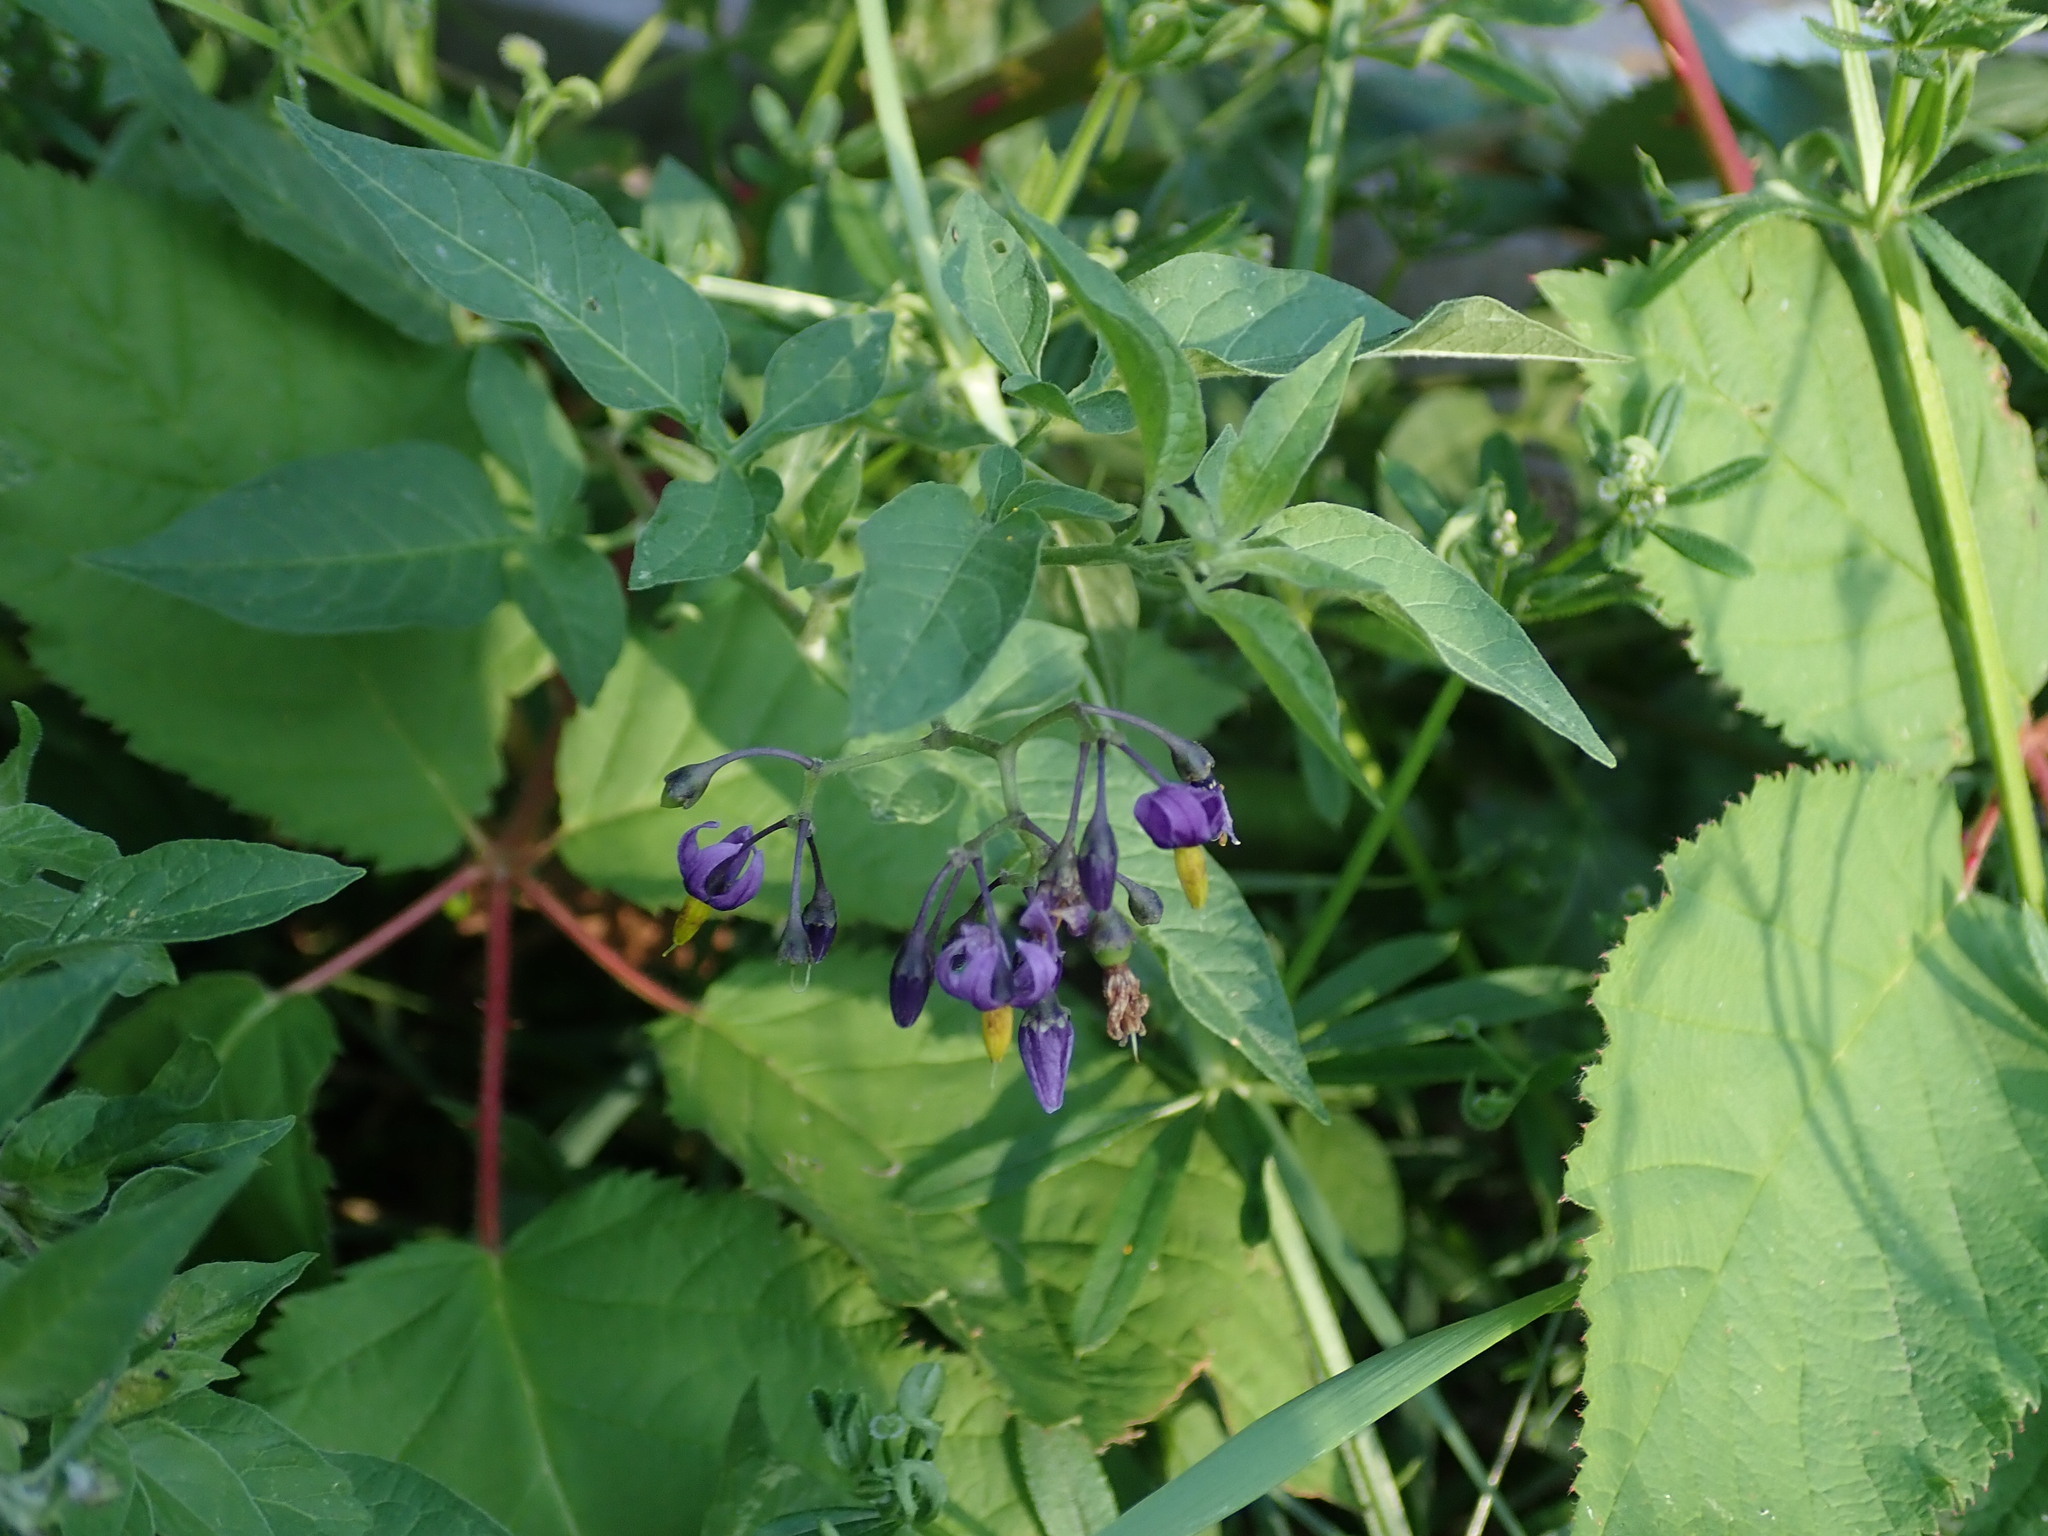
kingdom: Plantae
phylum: Tracheophyta
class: Magnoliopsida
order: Solanales
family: Solanaceae
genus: Solanum
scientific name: Solanum dulcamara
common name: Climbing nightshade
